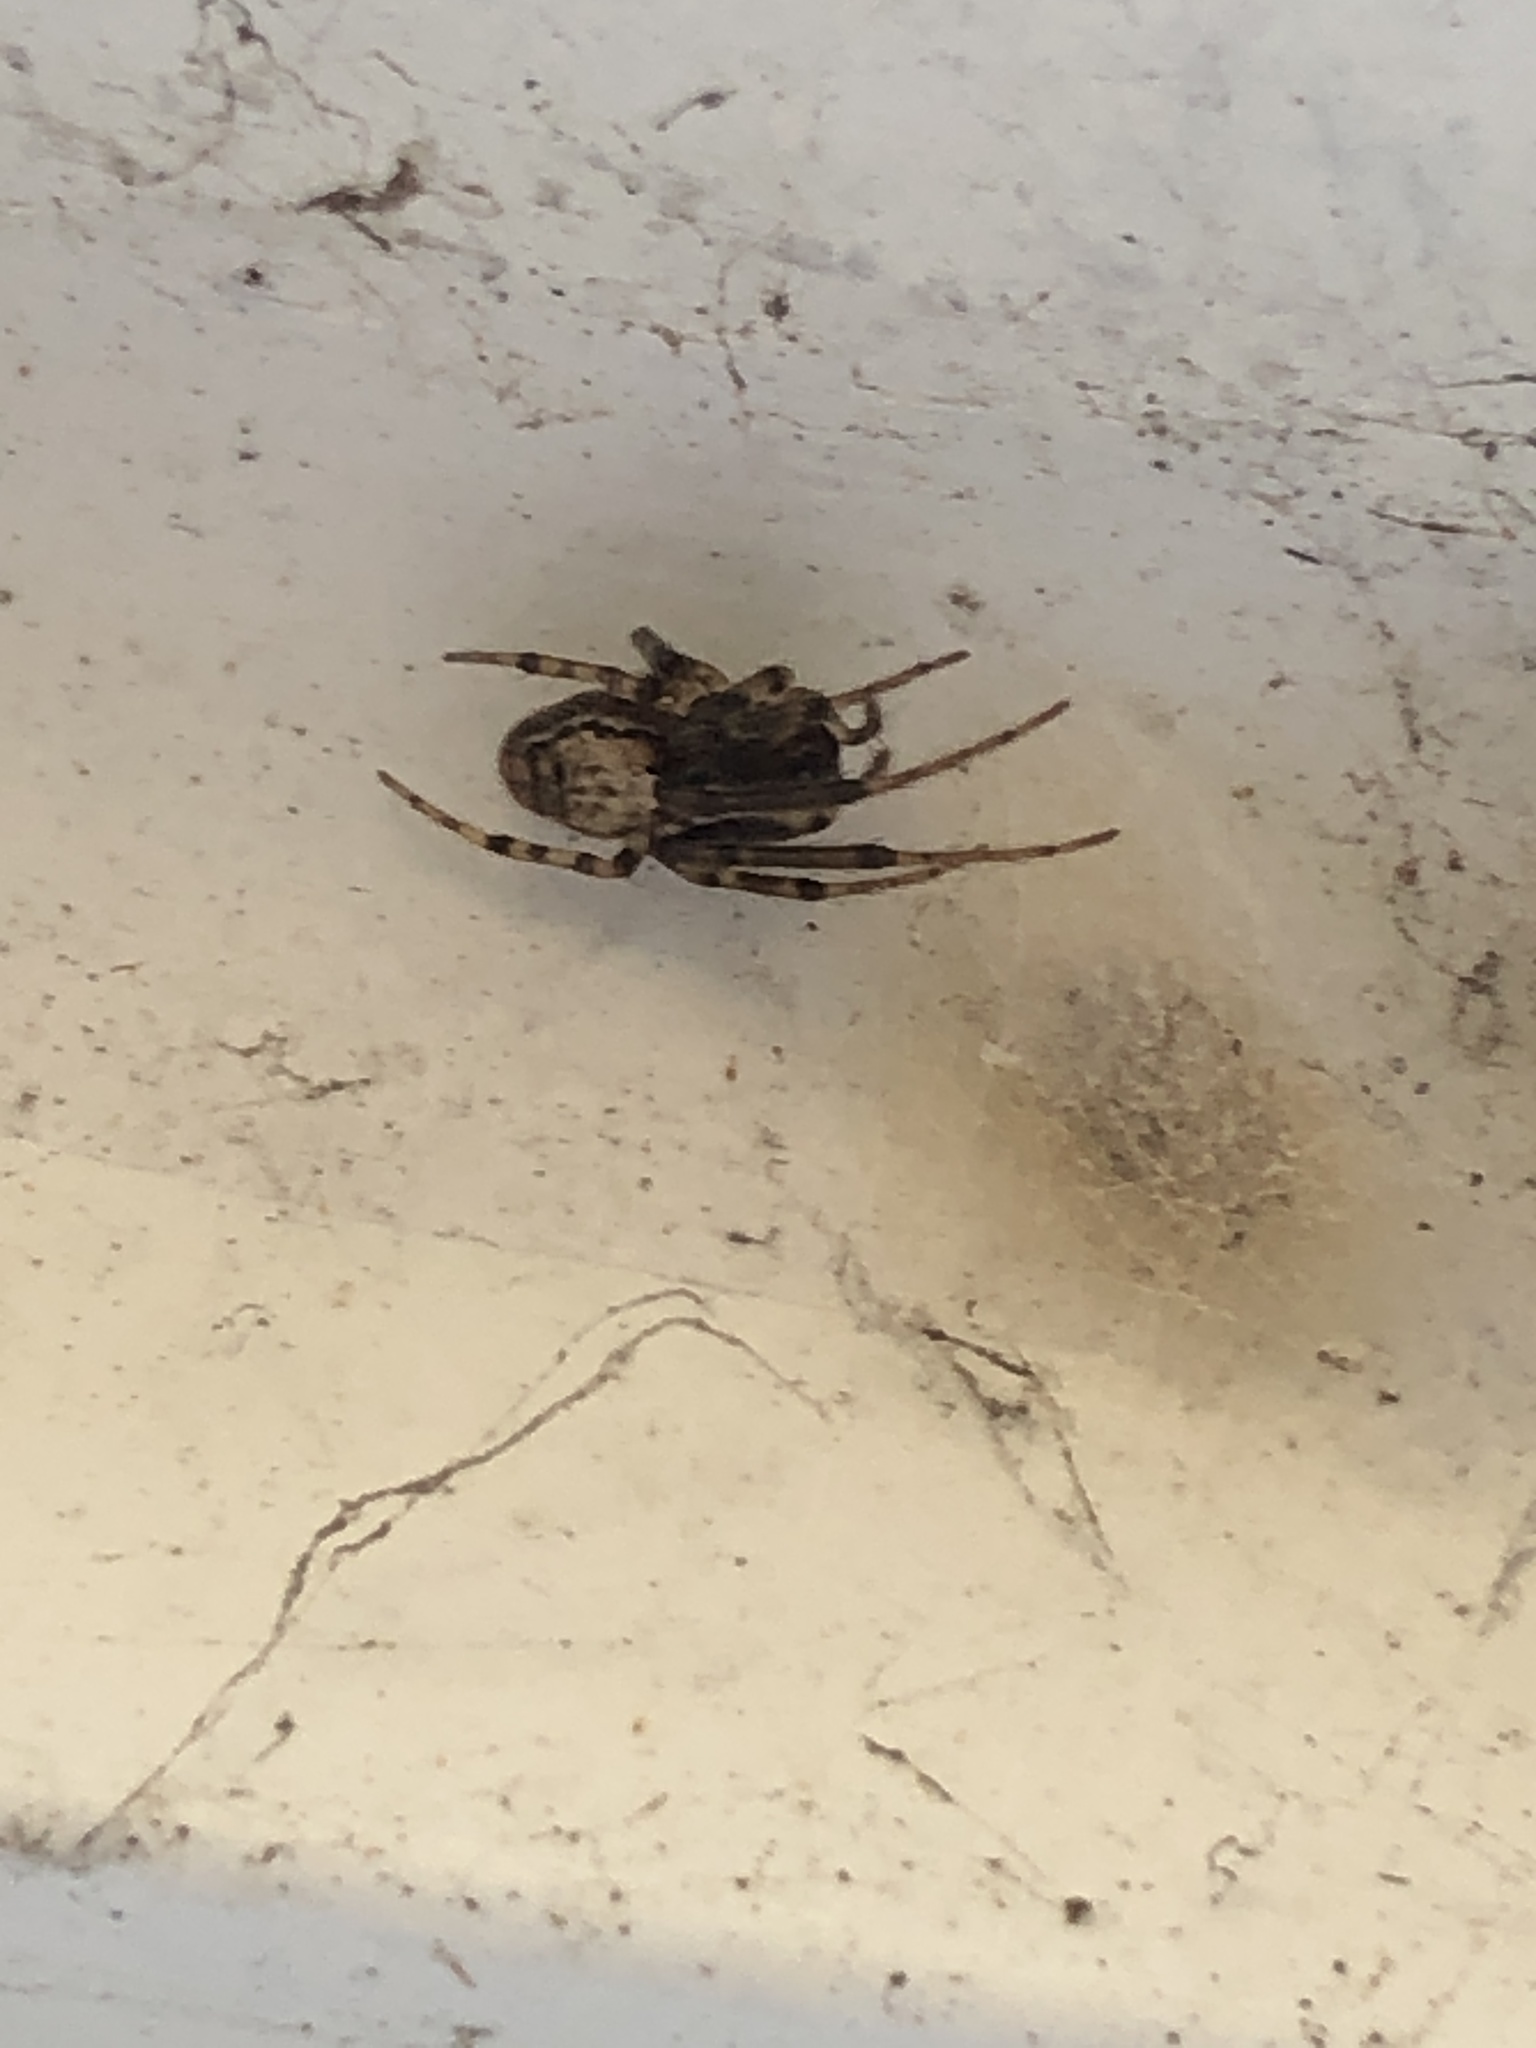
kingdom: Animalia
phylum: Arthropoda
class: Arachnida
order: Araneae
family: Araneidae
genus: Zygiella
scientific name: Zygiella x-notata
